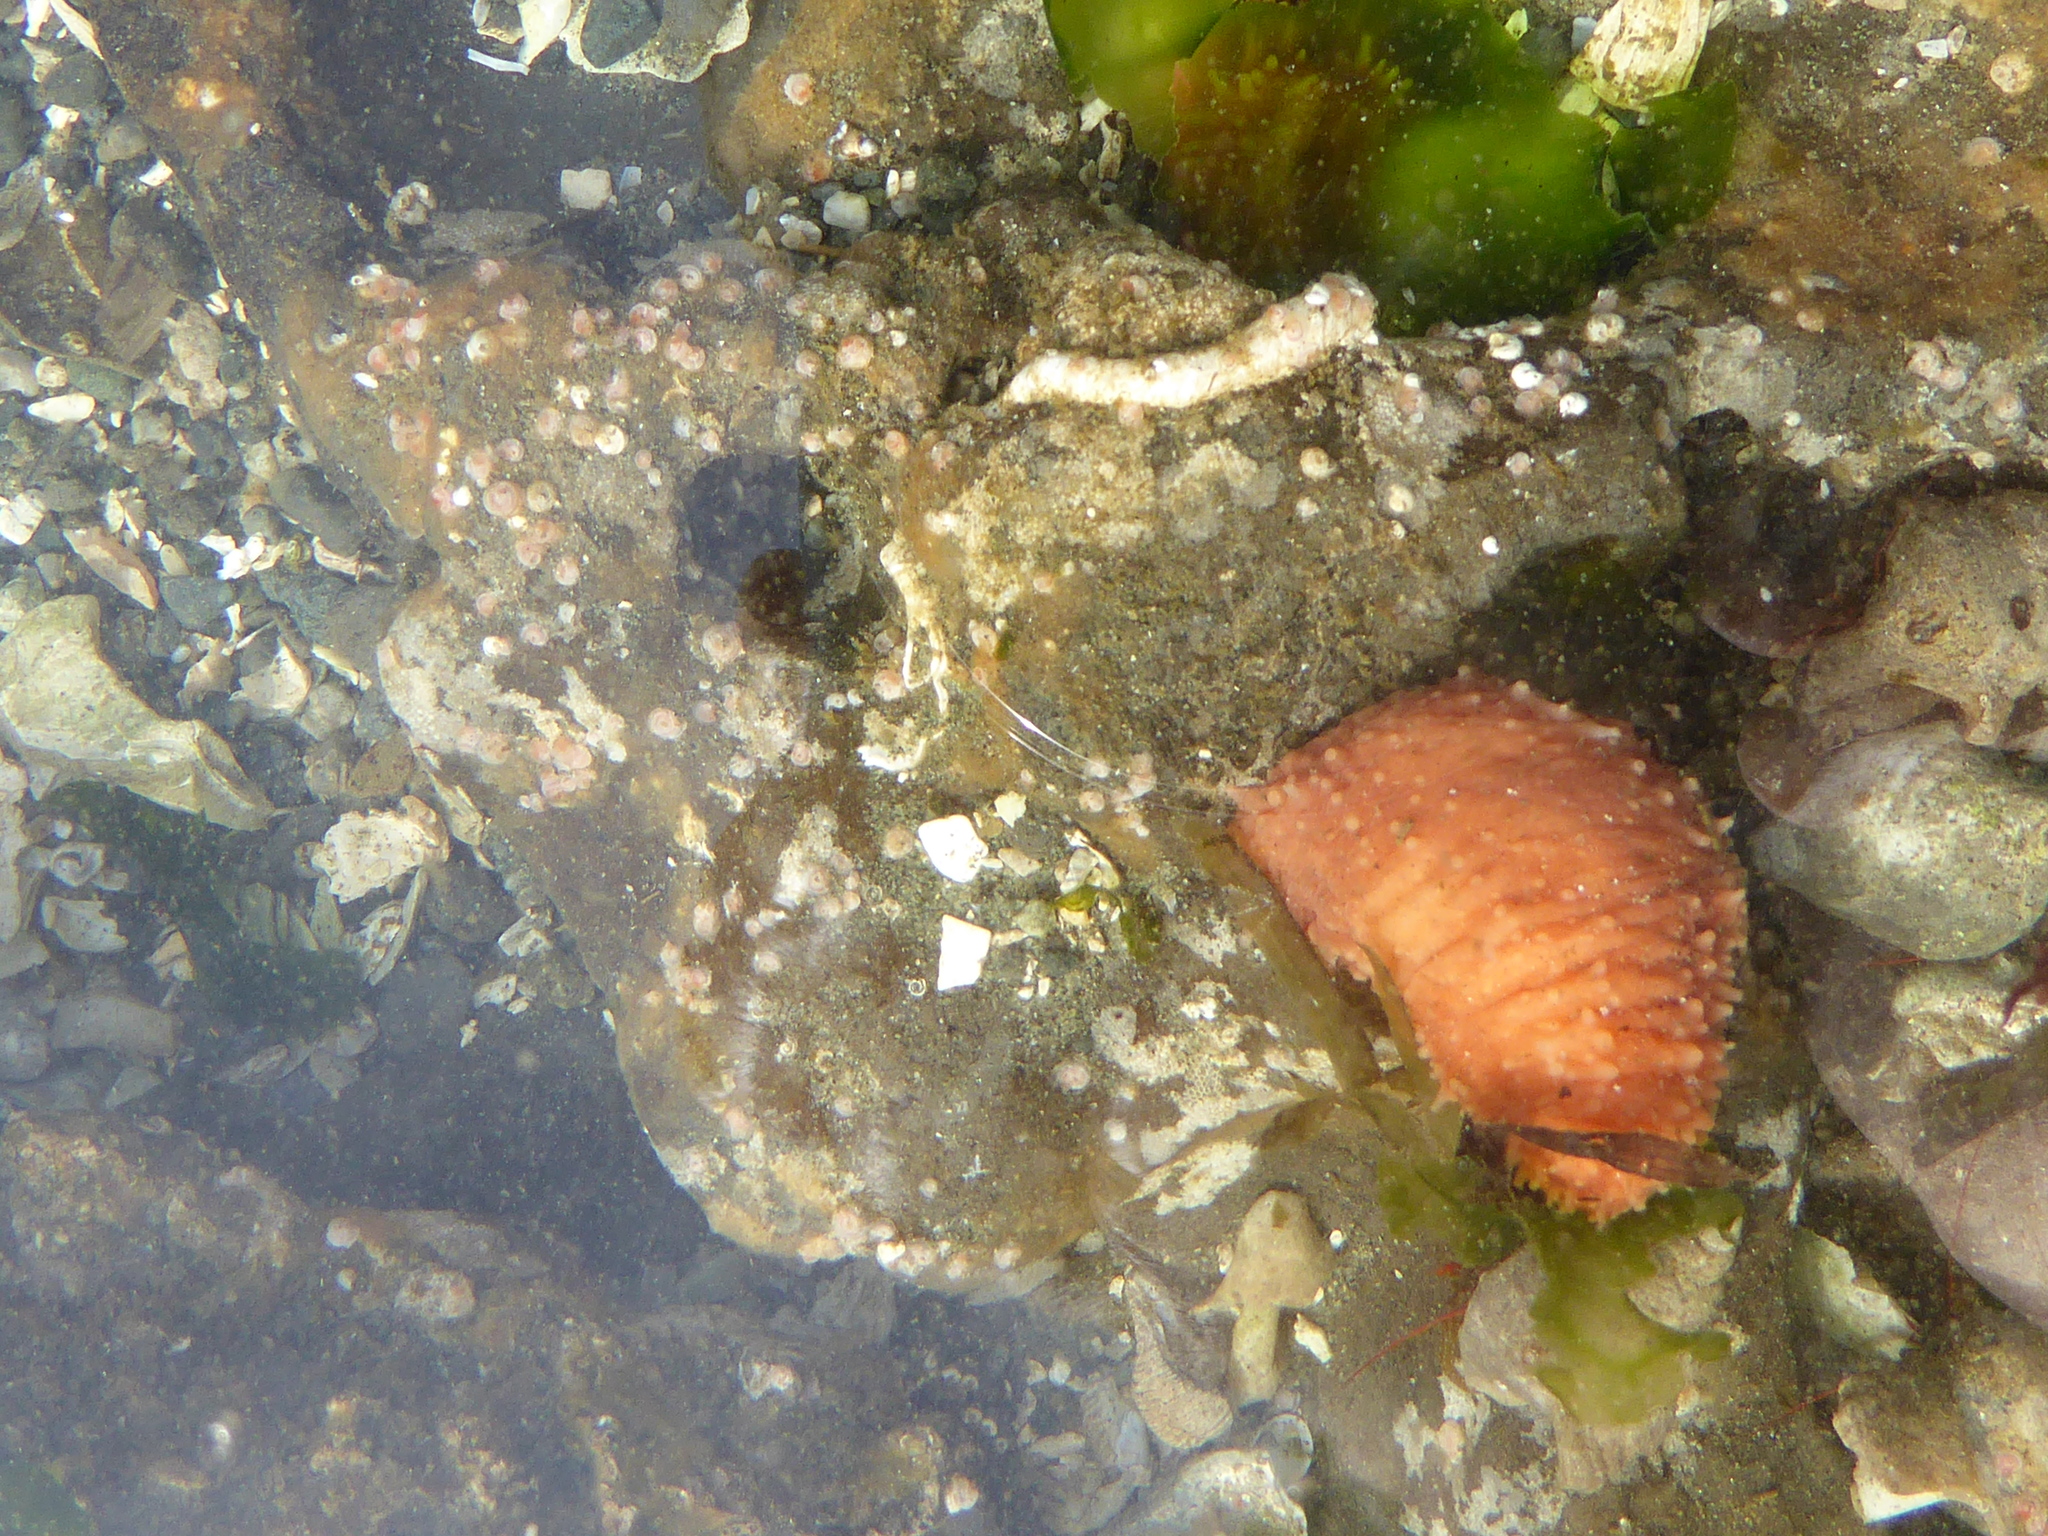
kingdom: Animalia
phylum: Echinodermata
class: Holothuroidea
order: Dendrochirotida
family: Cucumariidae
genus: Cucumaria
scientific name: Cucumaria miniata
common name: Orange sea cucumber
